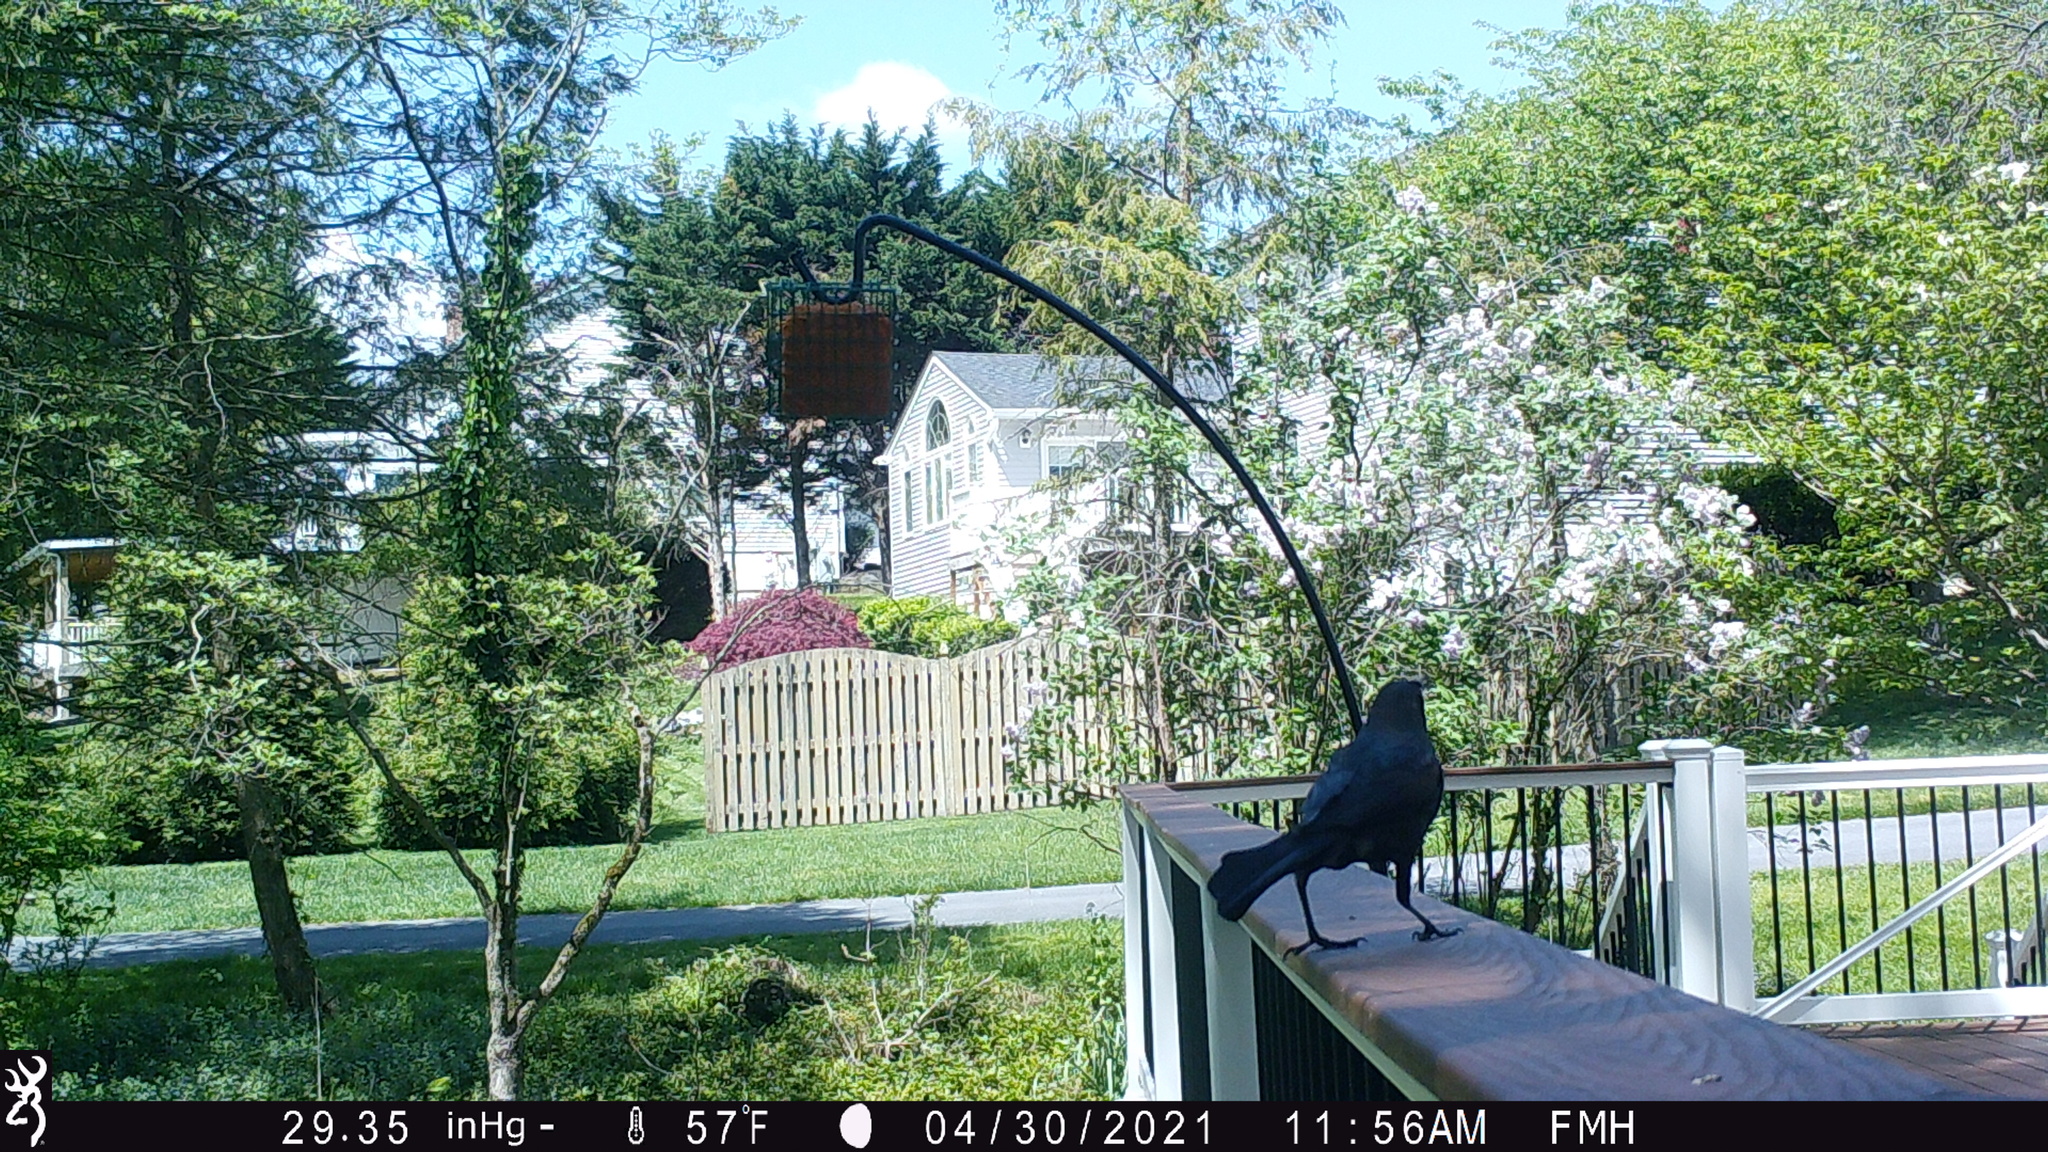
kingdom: Animalia
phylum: Chordata
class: Aves
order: Passeriformes
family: Icteridae
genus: Quiscalus
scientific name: Quiscalus quiscula
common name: Common grackle
